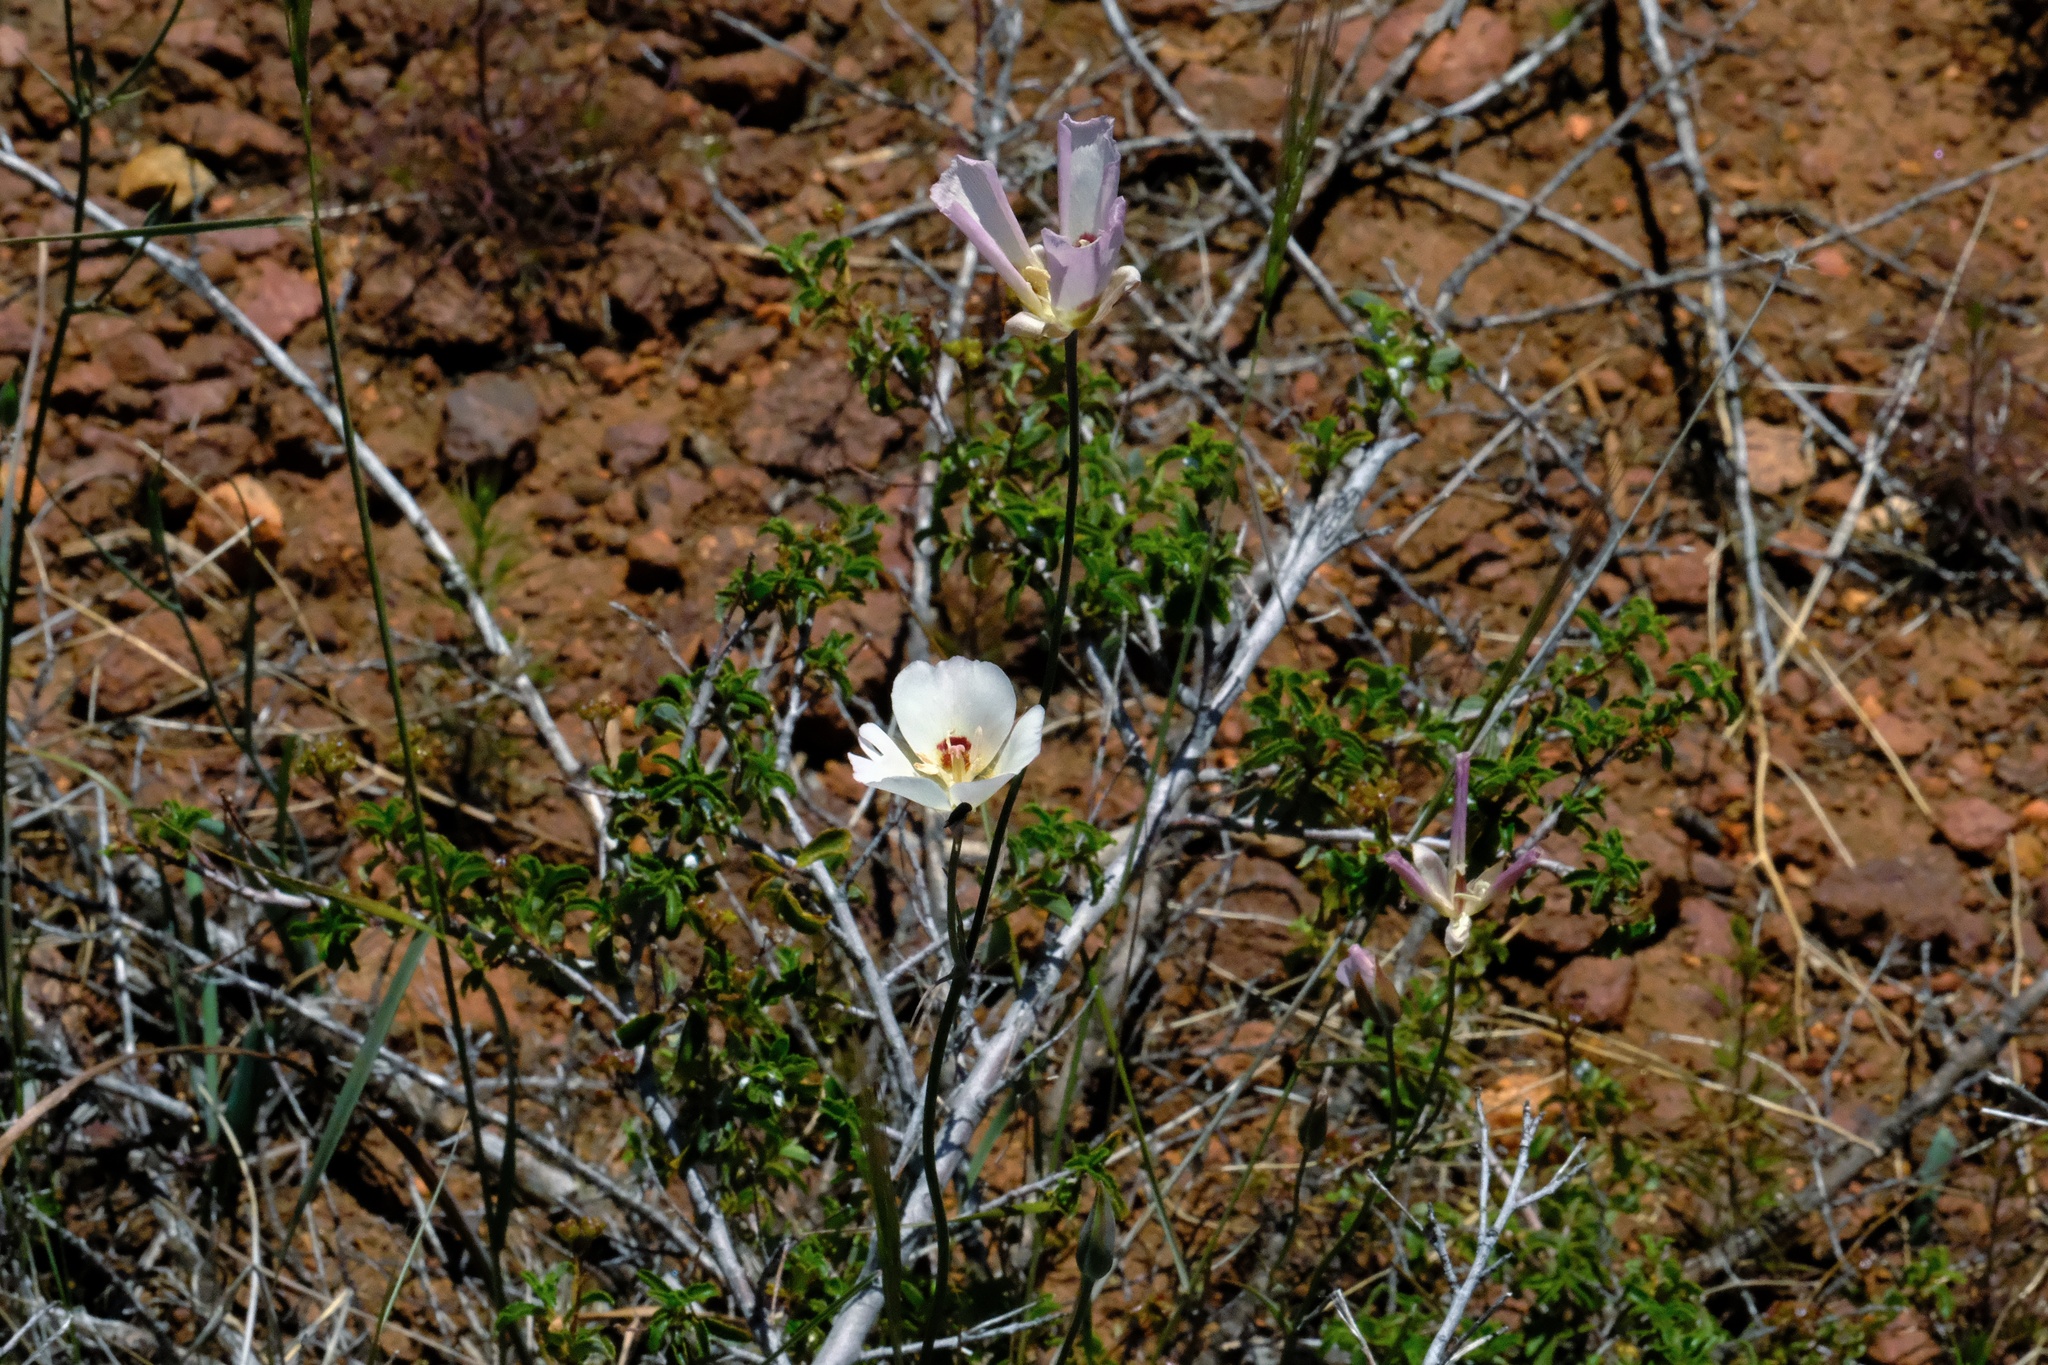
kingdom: Plantae
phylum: Tracheophyta
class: Liliopsida
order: Liliales
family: Liliaceae
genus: Calochortus
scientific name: Calochortus dunnii
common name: Dunn's mariposa-lily
